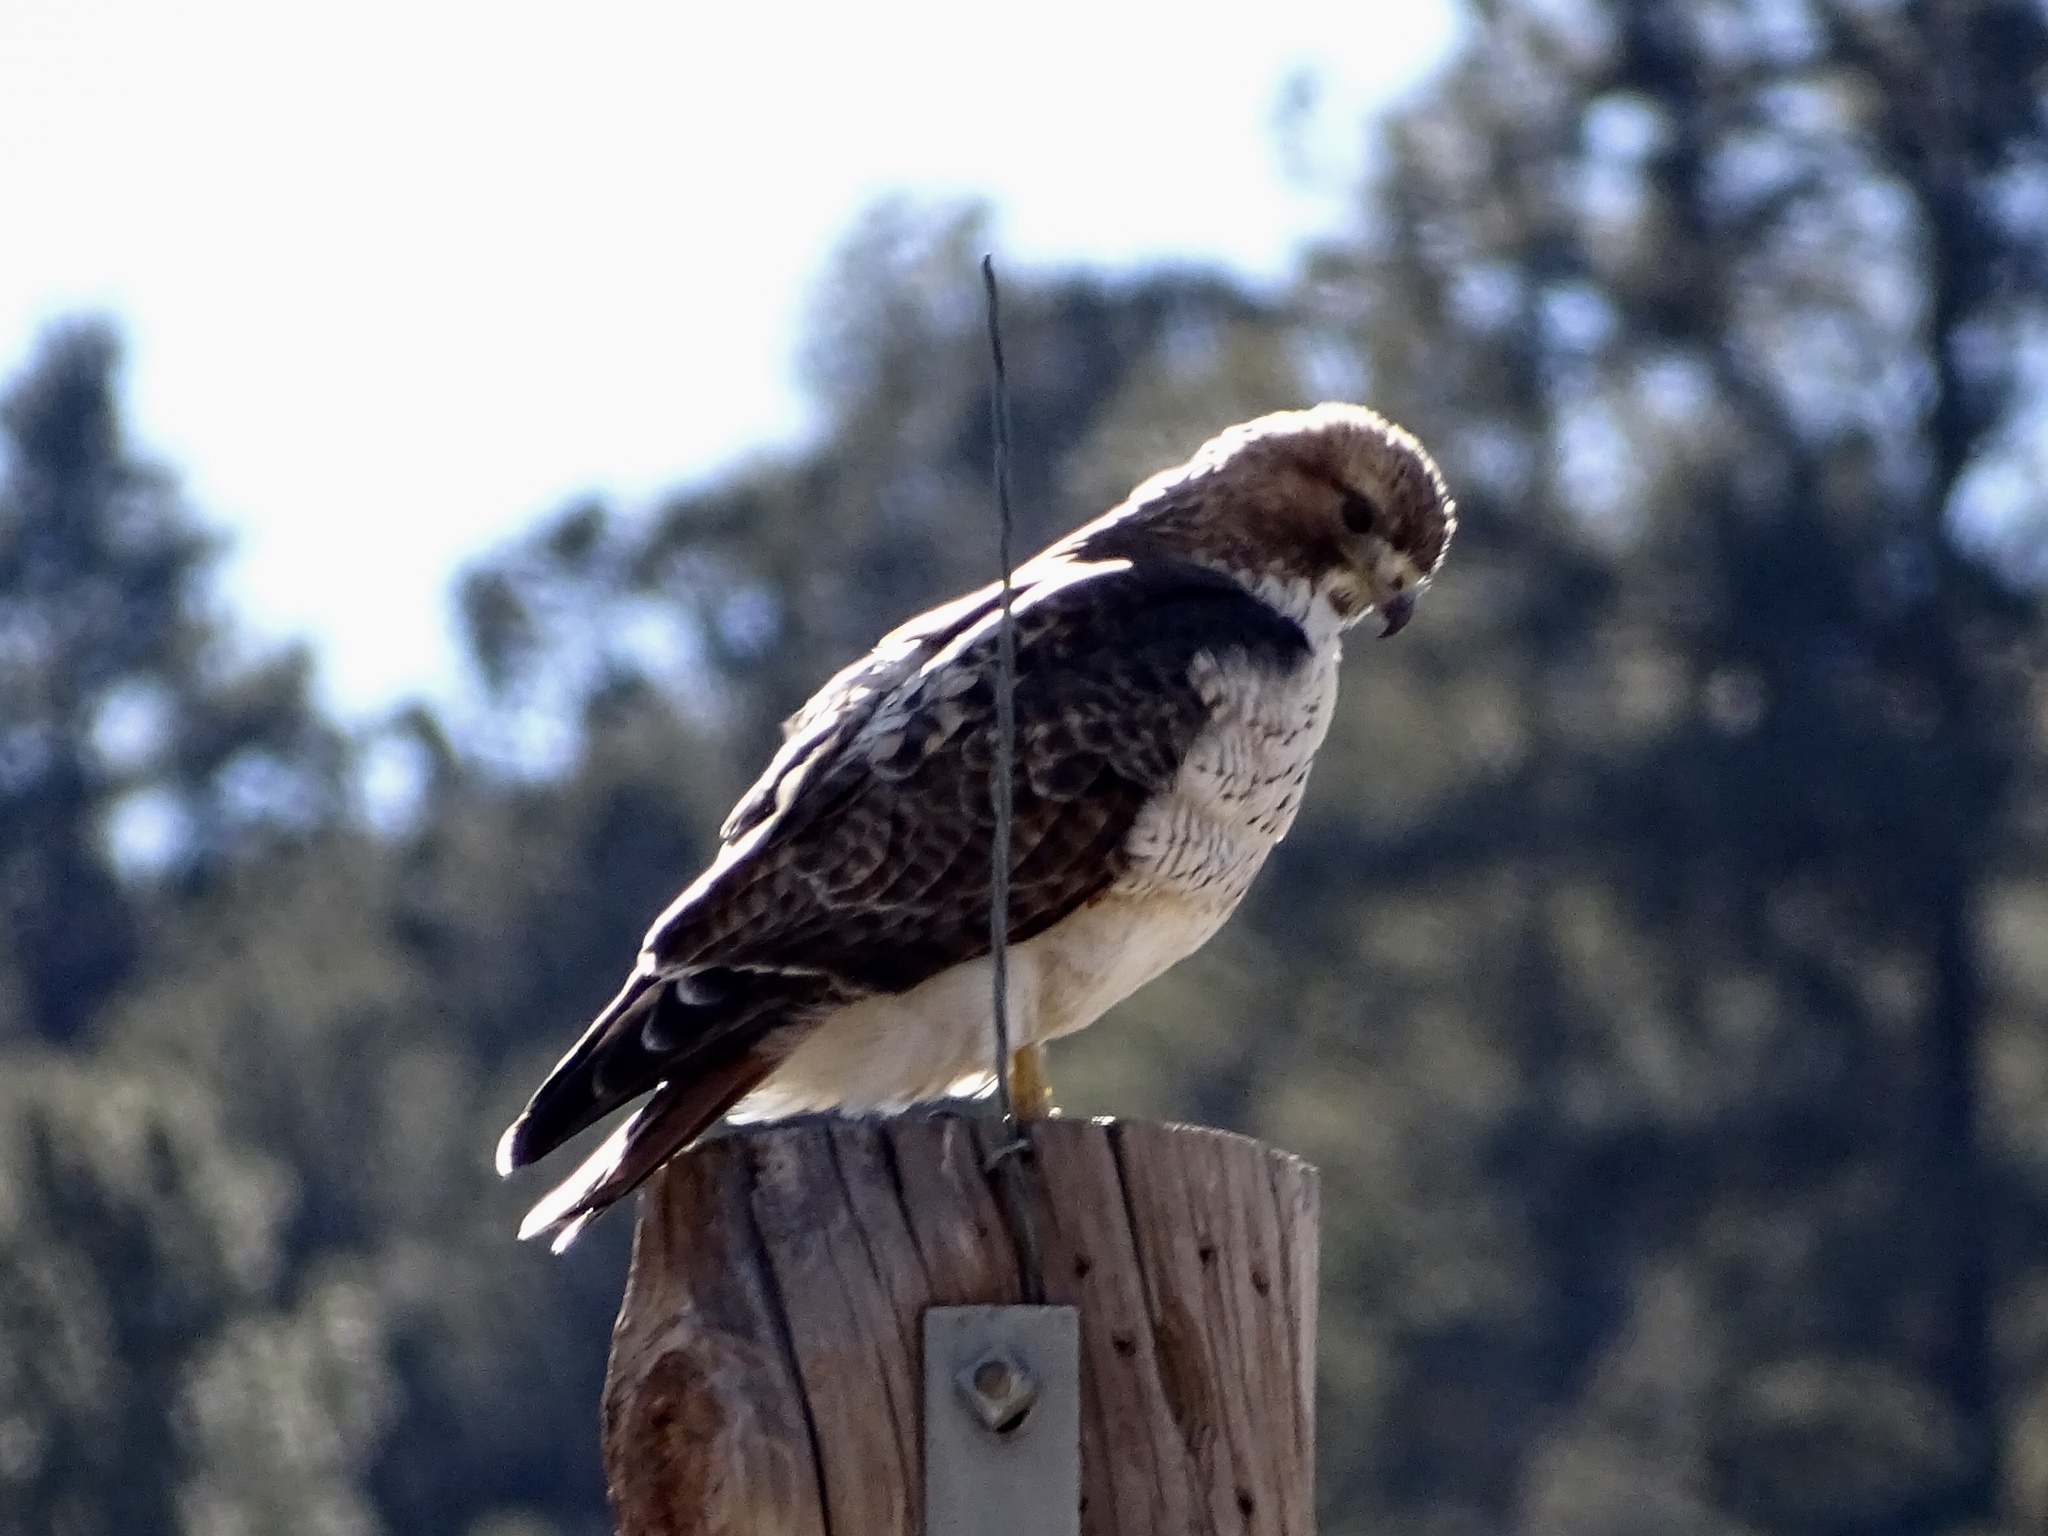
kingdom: Animalia
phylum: Chordata
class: Aves
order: Accipitriformes
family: Accipitridae
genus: Buteo
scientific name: Buteo jamaicensis
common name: Red-tailed hawk
